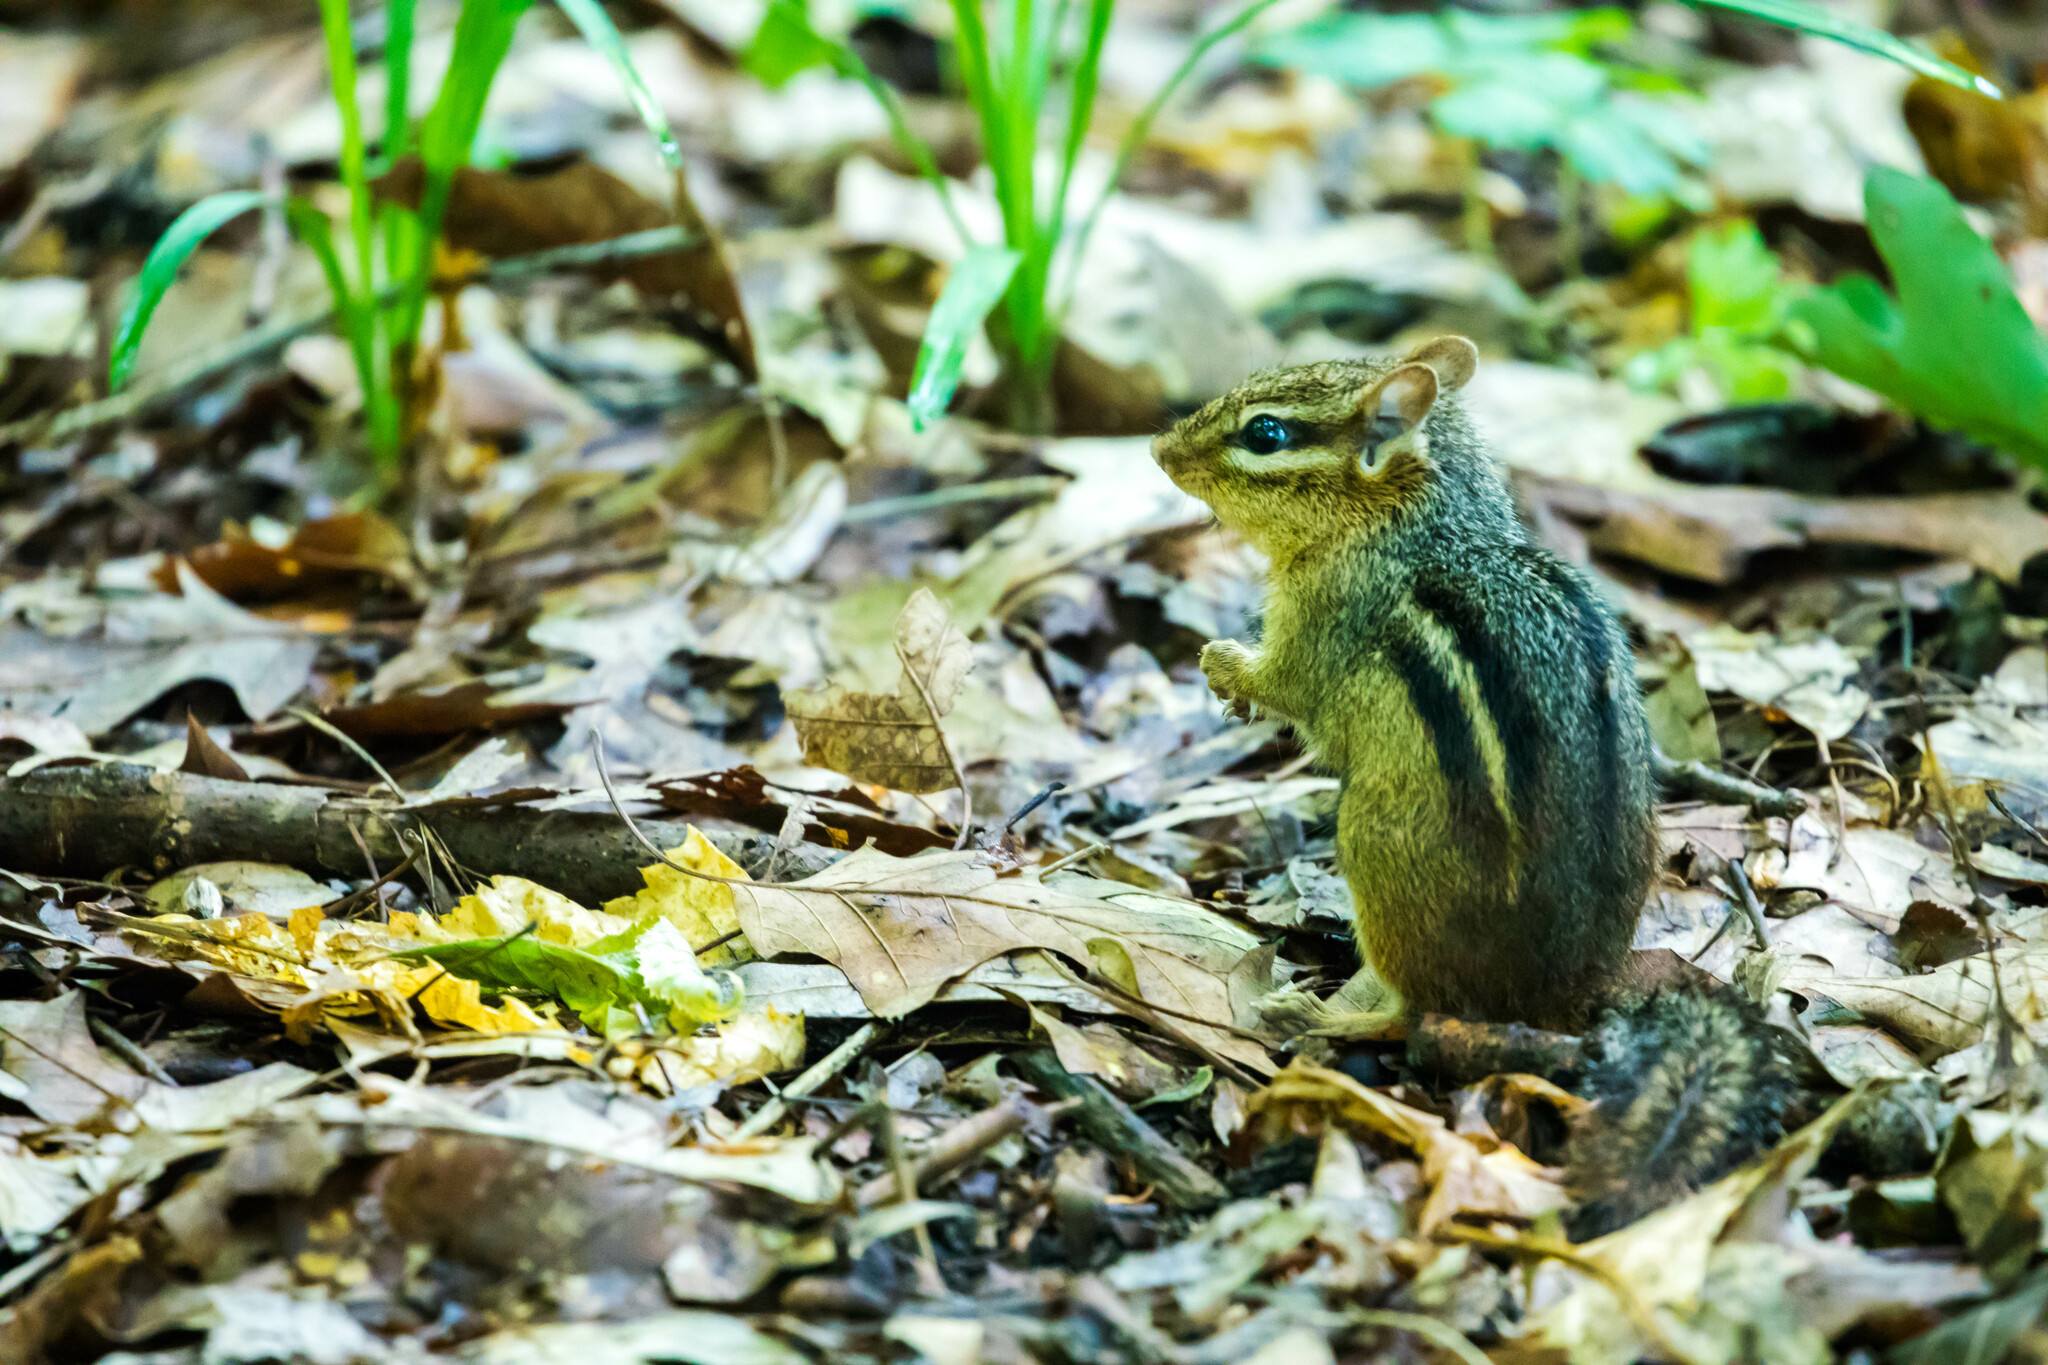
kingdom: Animalia
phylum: Chordata
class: Mammalia
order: Rodentia
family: Sciuridae
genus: Tamias
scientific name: Tamias striatus
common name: Eastern chipmunk
